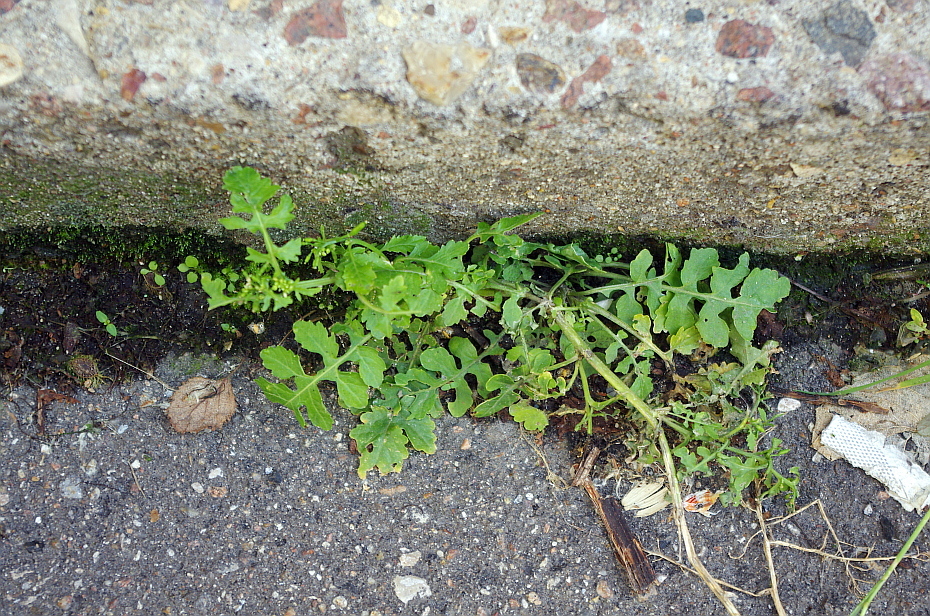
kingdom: Plantae
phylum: Tracheophyta
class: Magnoliopsida
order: Brassicales
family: Brassicaceae
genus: Rorippa
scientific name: Rorippa palustris
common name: Marsh yellow-cress
